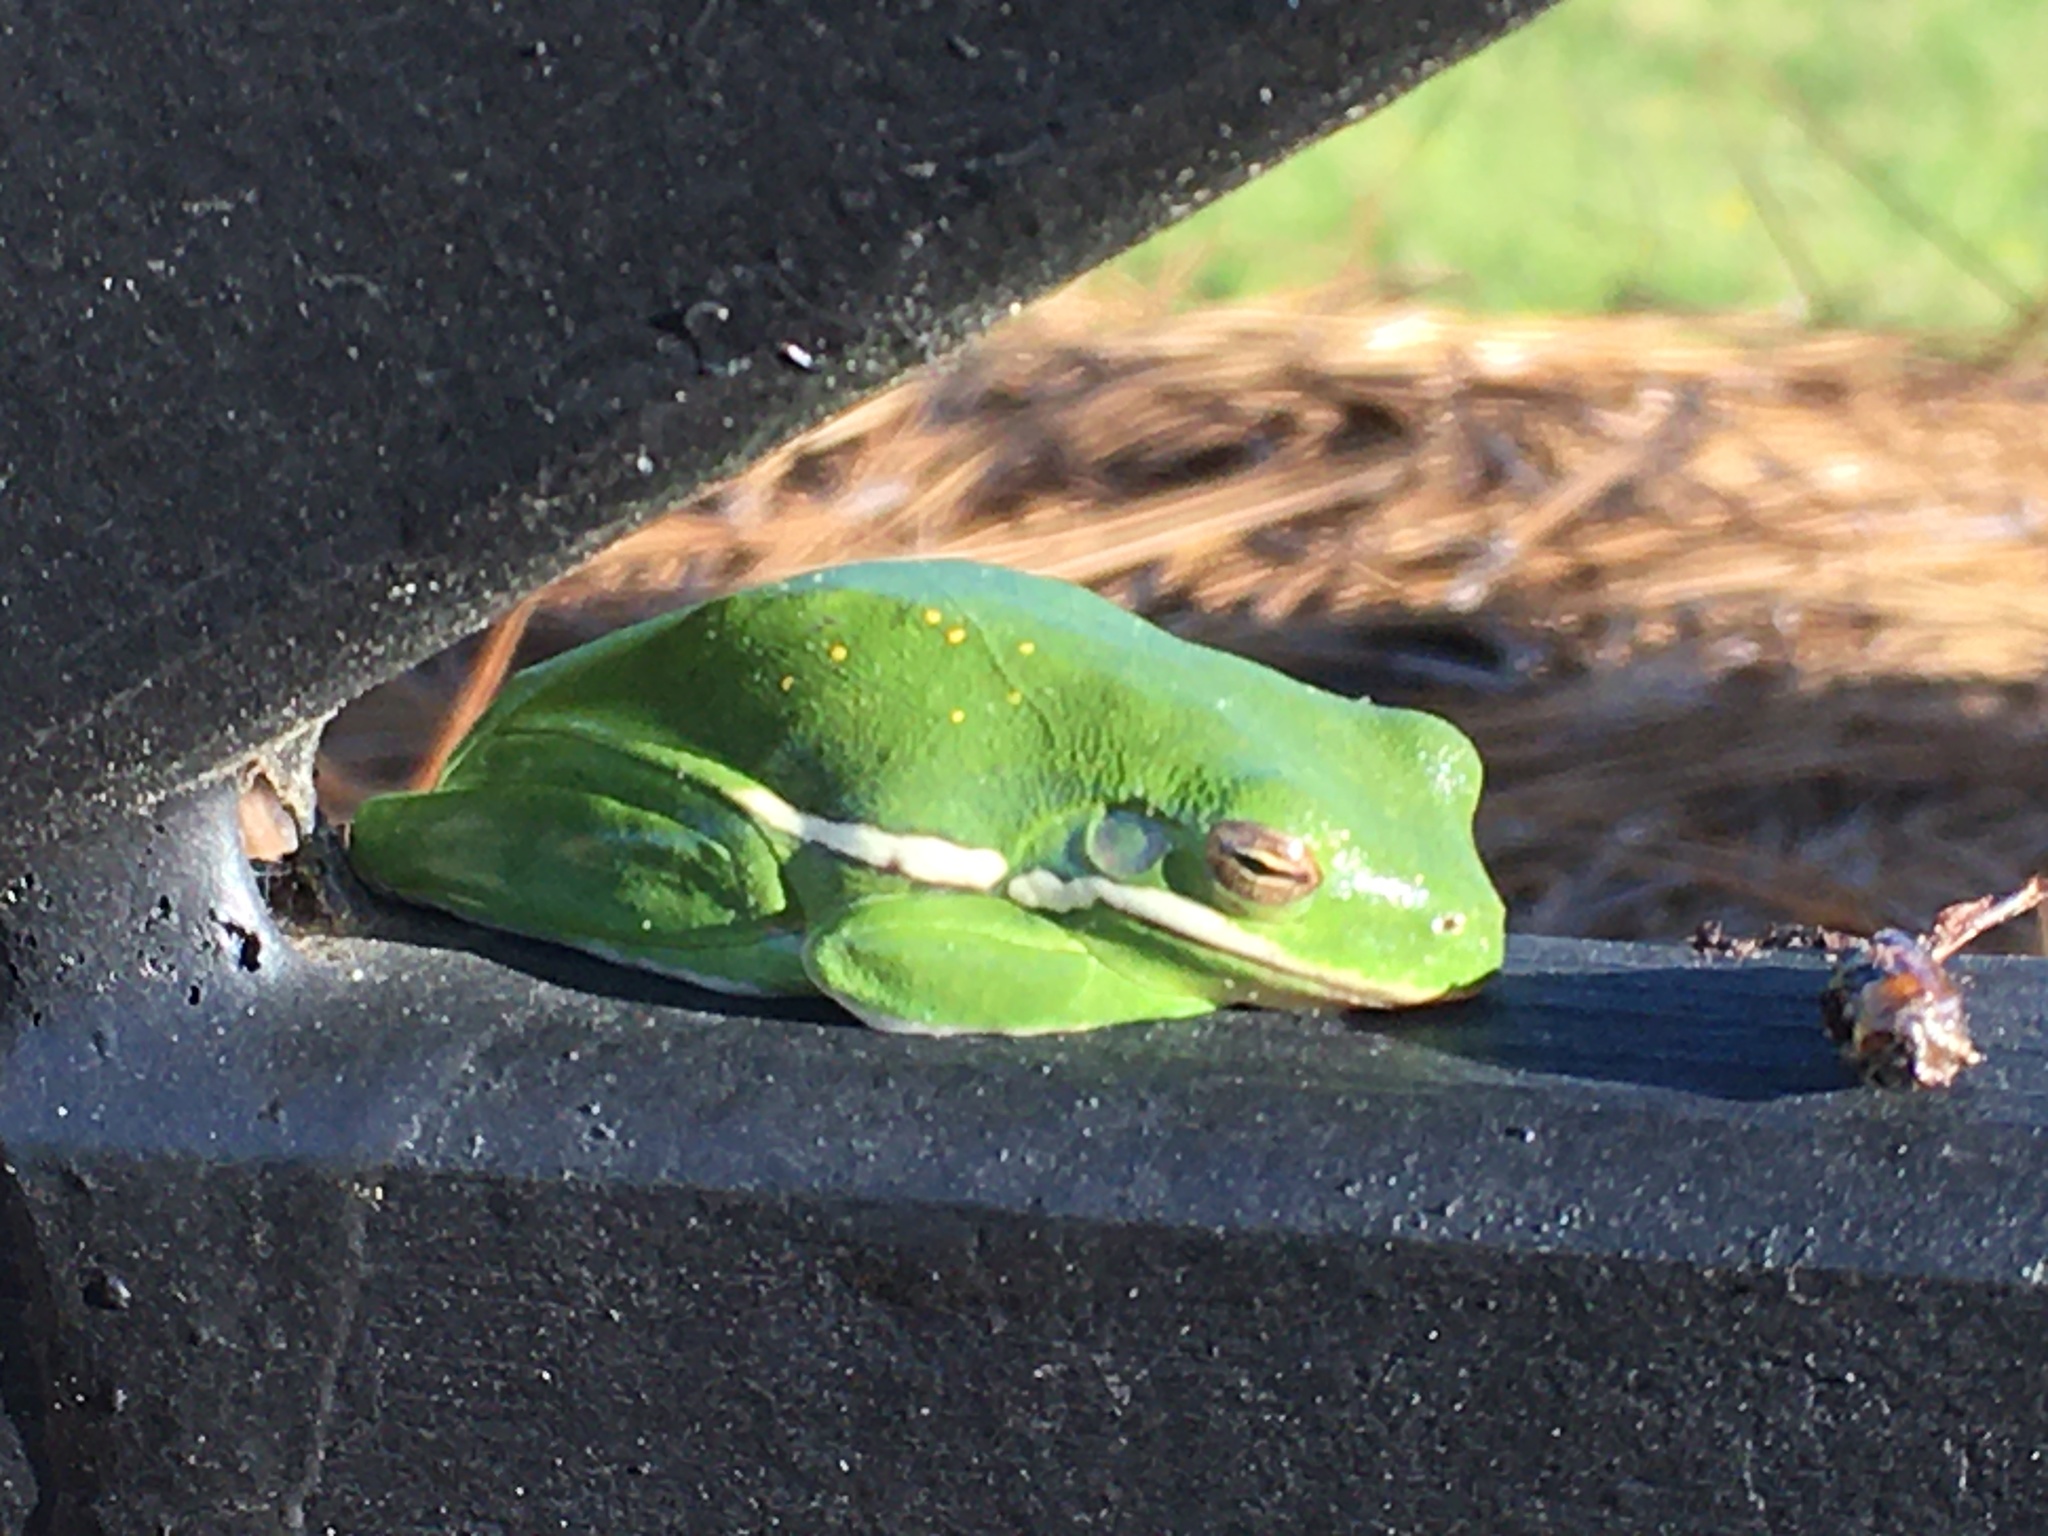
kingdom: Animalia
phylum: Chordata
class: Amphibia
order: Anura
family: Hylidae
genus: Dryophytes
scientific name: Dryophytes cinereus
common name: Green treefrog
